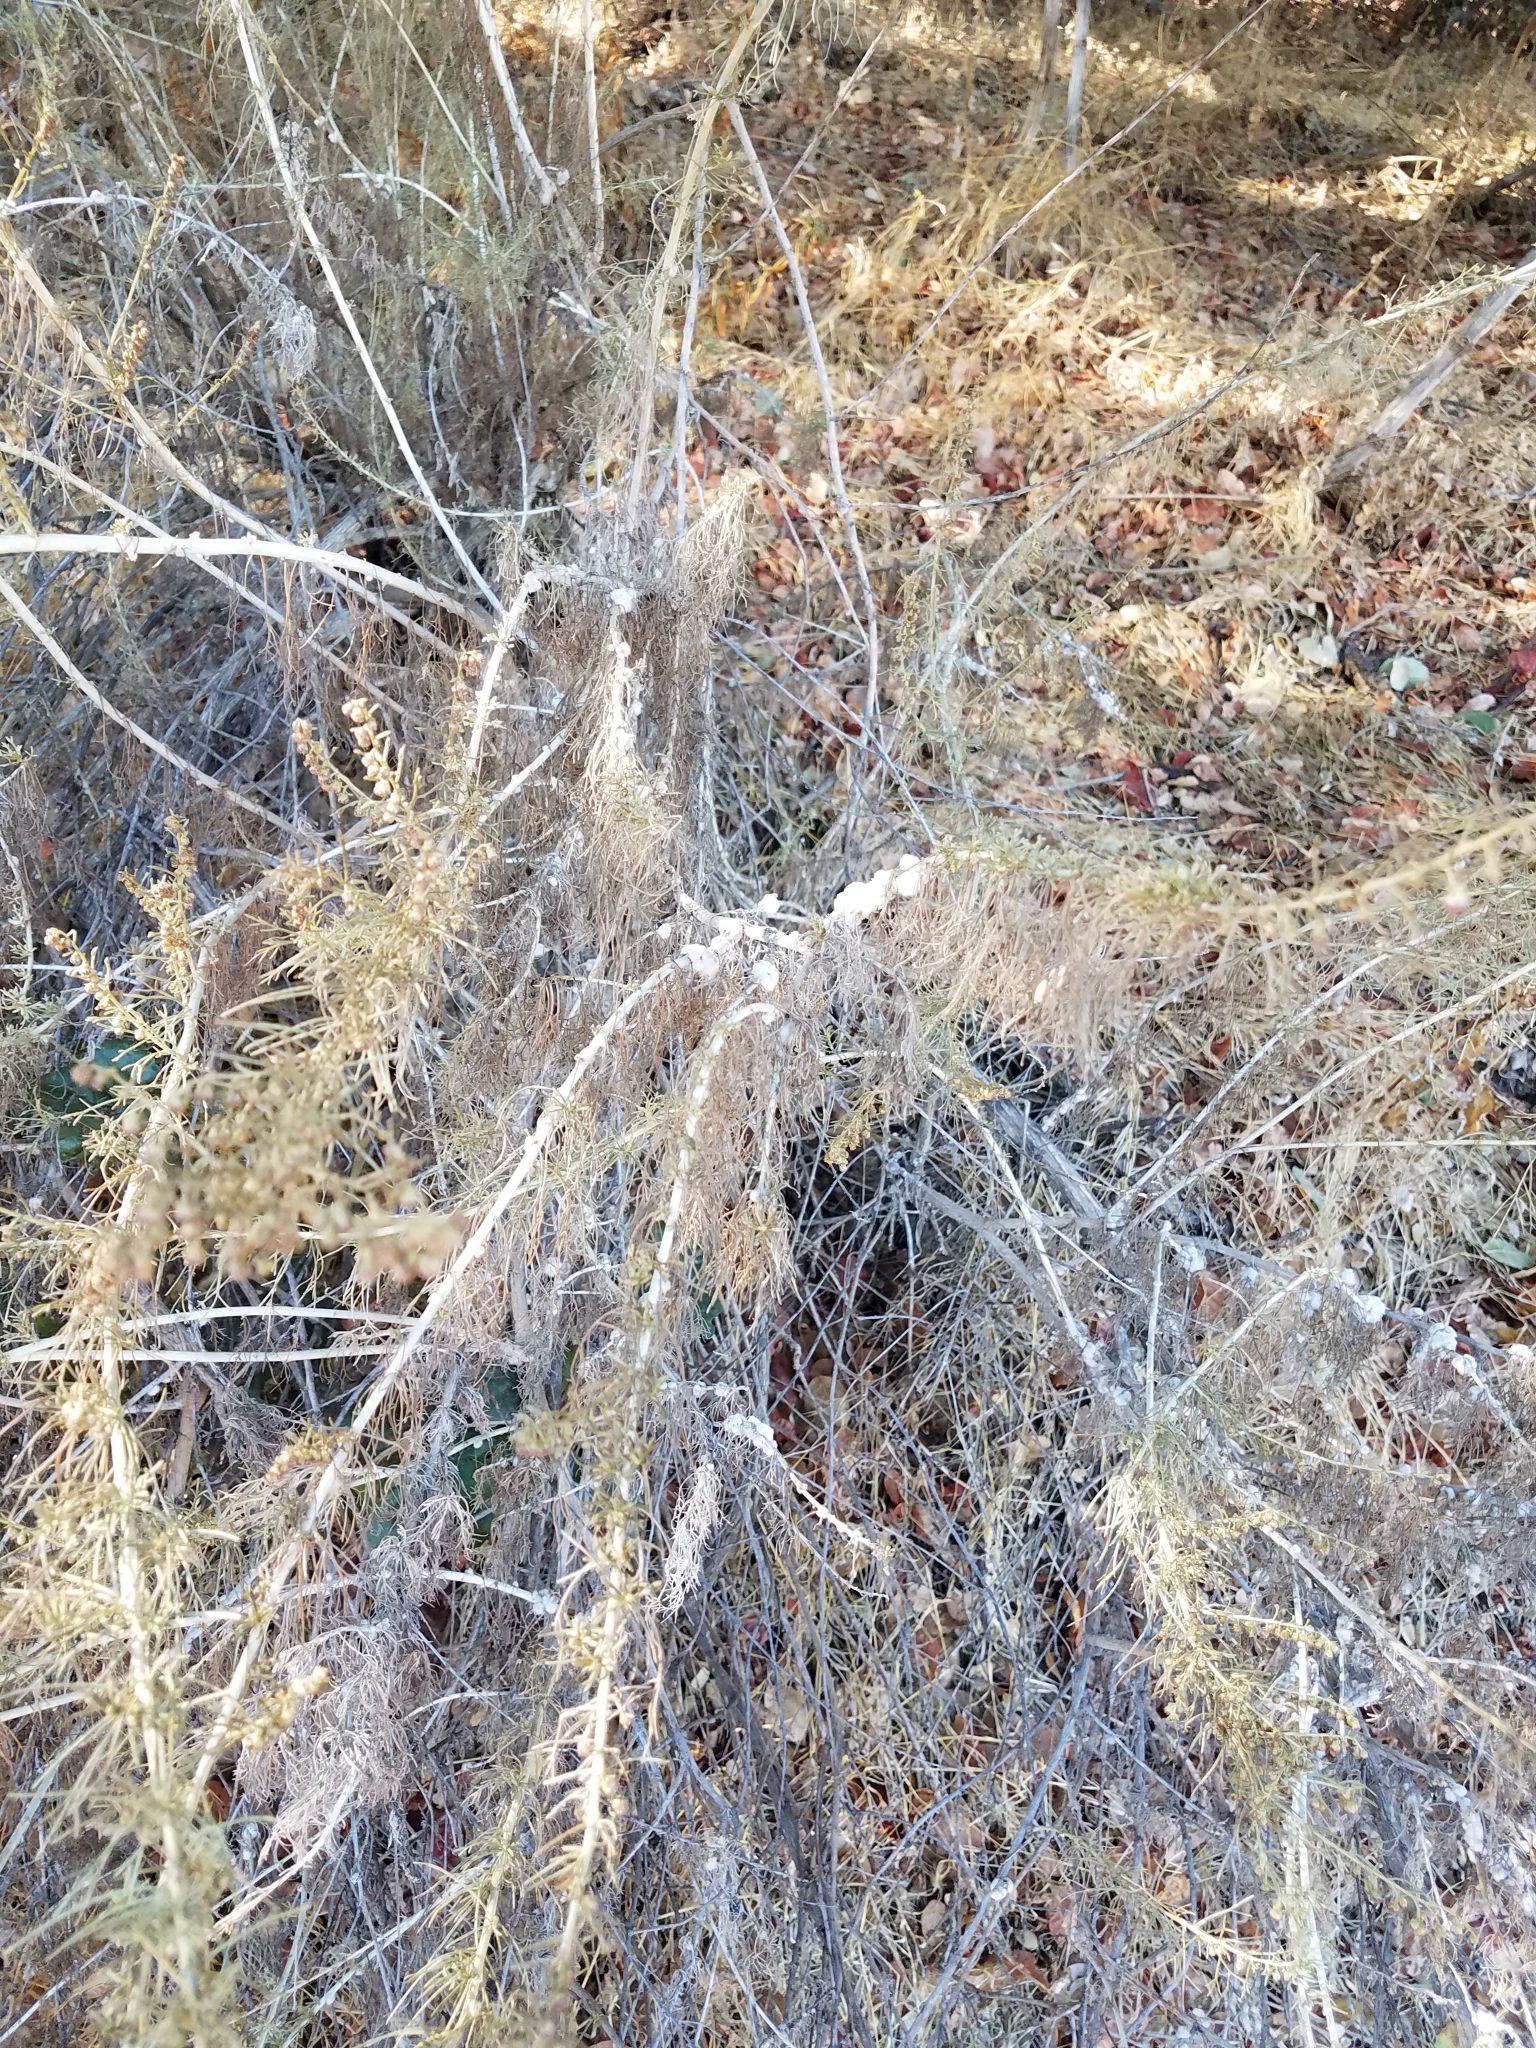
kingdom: Plantae
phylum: Tracheophyta
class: Magnoliopsida
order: Asterales
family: Asteraceae
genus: Artemisia
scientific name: Artemisia californica
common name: California sagebrush
